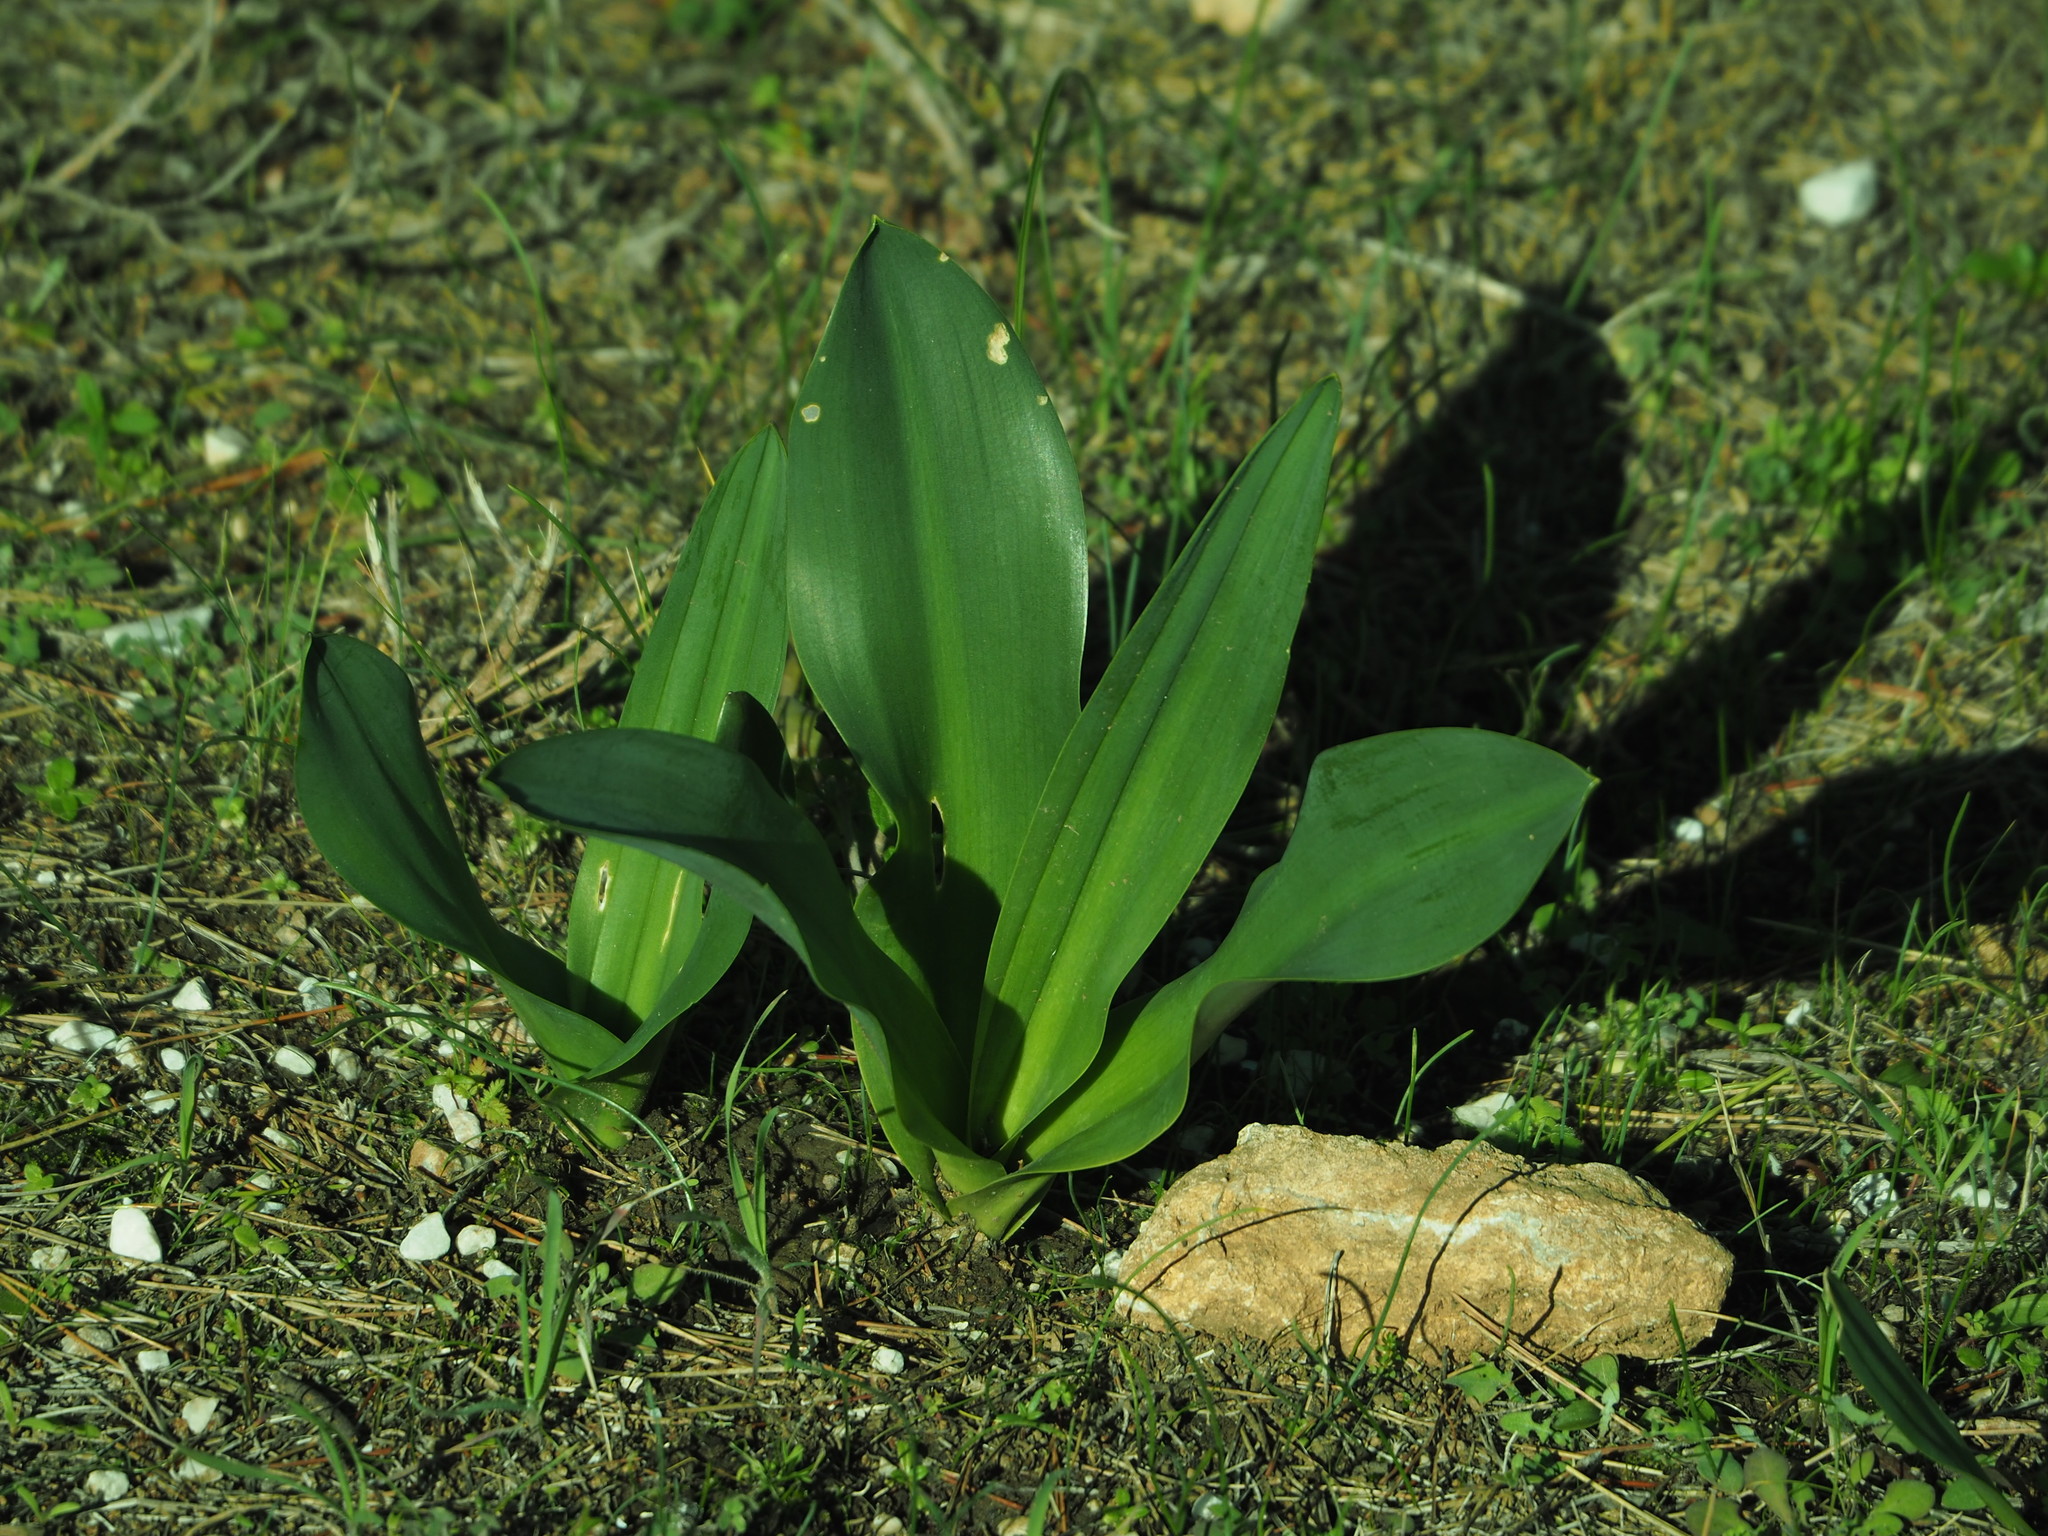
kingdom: Plantae
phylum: Tracheophyta
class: Liliopsida
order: Asparagales
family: Asparagaceae
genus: Drimia
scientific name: Drimia numidica
